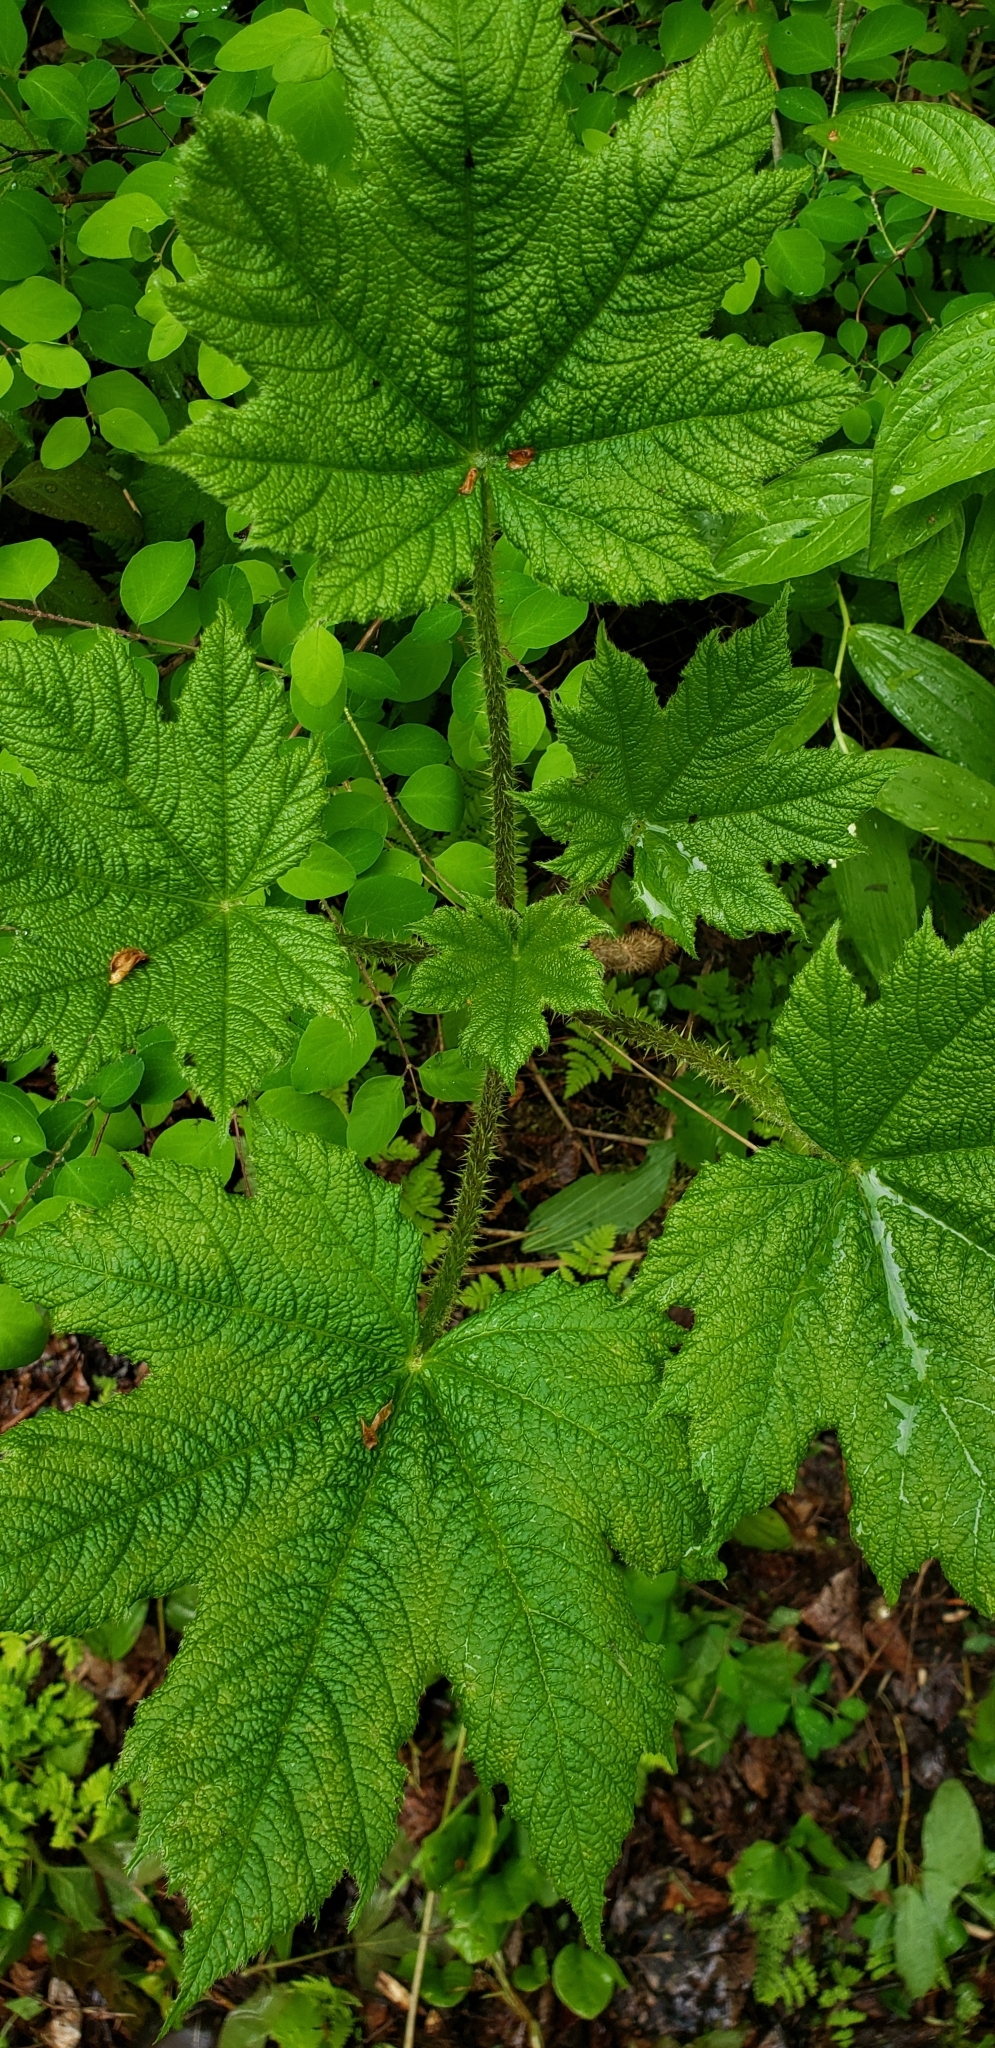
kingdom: Plantae
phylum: Tracheophyta
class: Magnoliopsida
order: Apiales
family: Araliaceae
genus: Oplopanax
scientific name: Oplopanax horridus
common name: Devil's walking-stick
